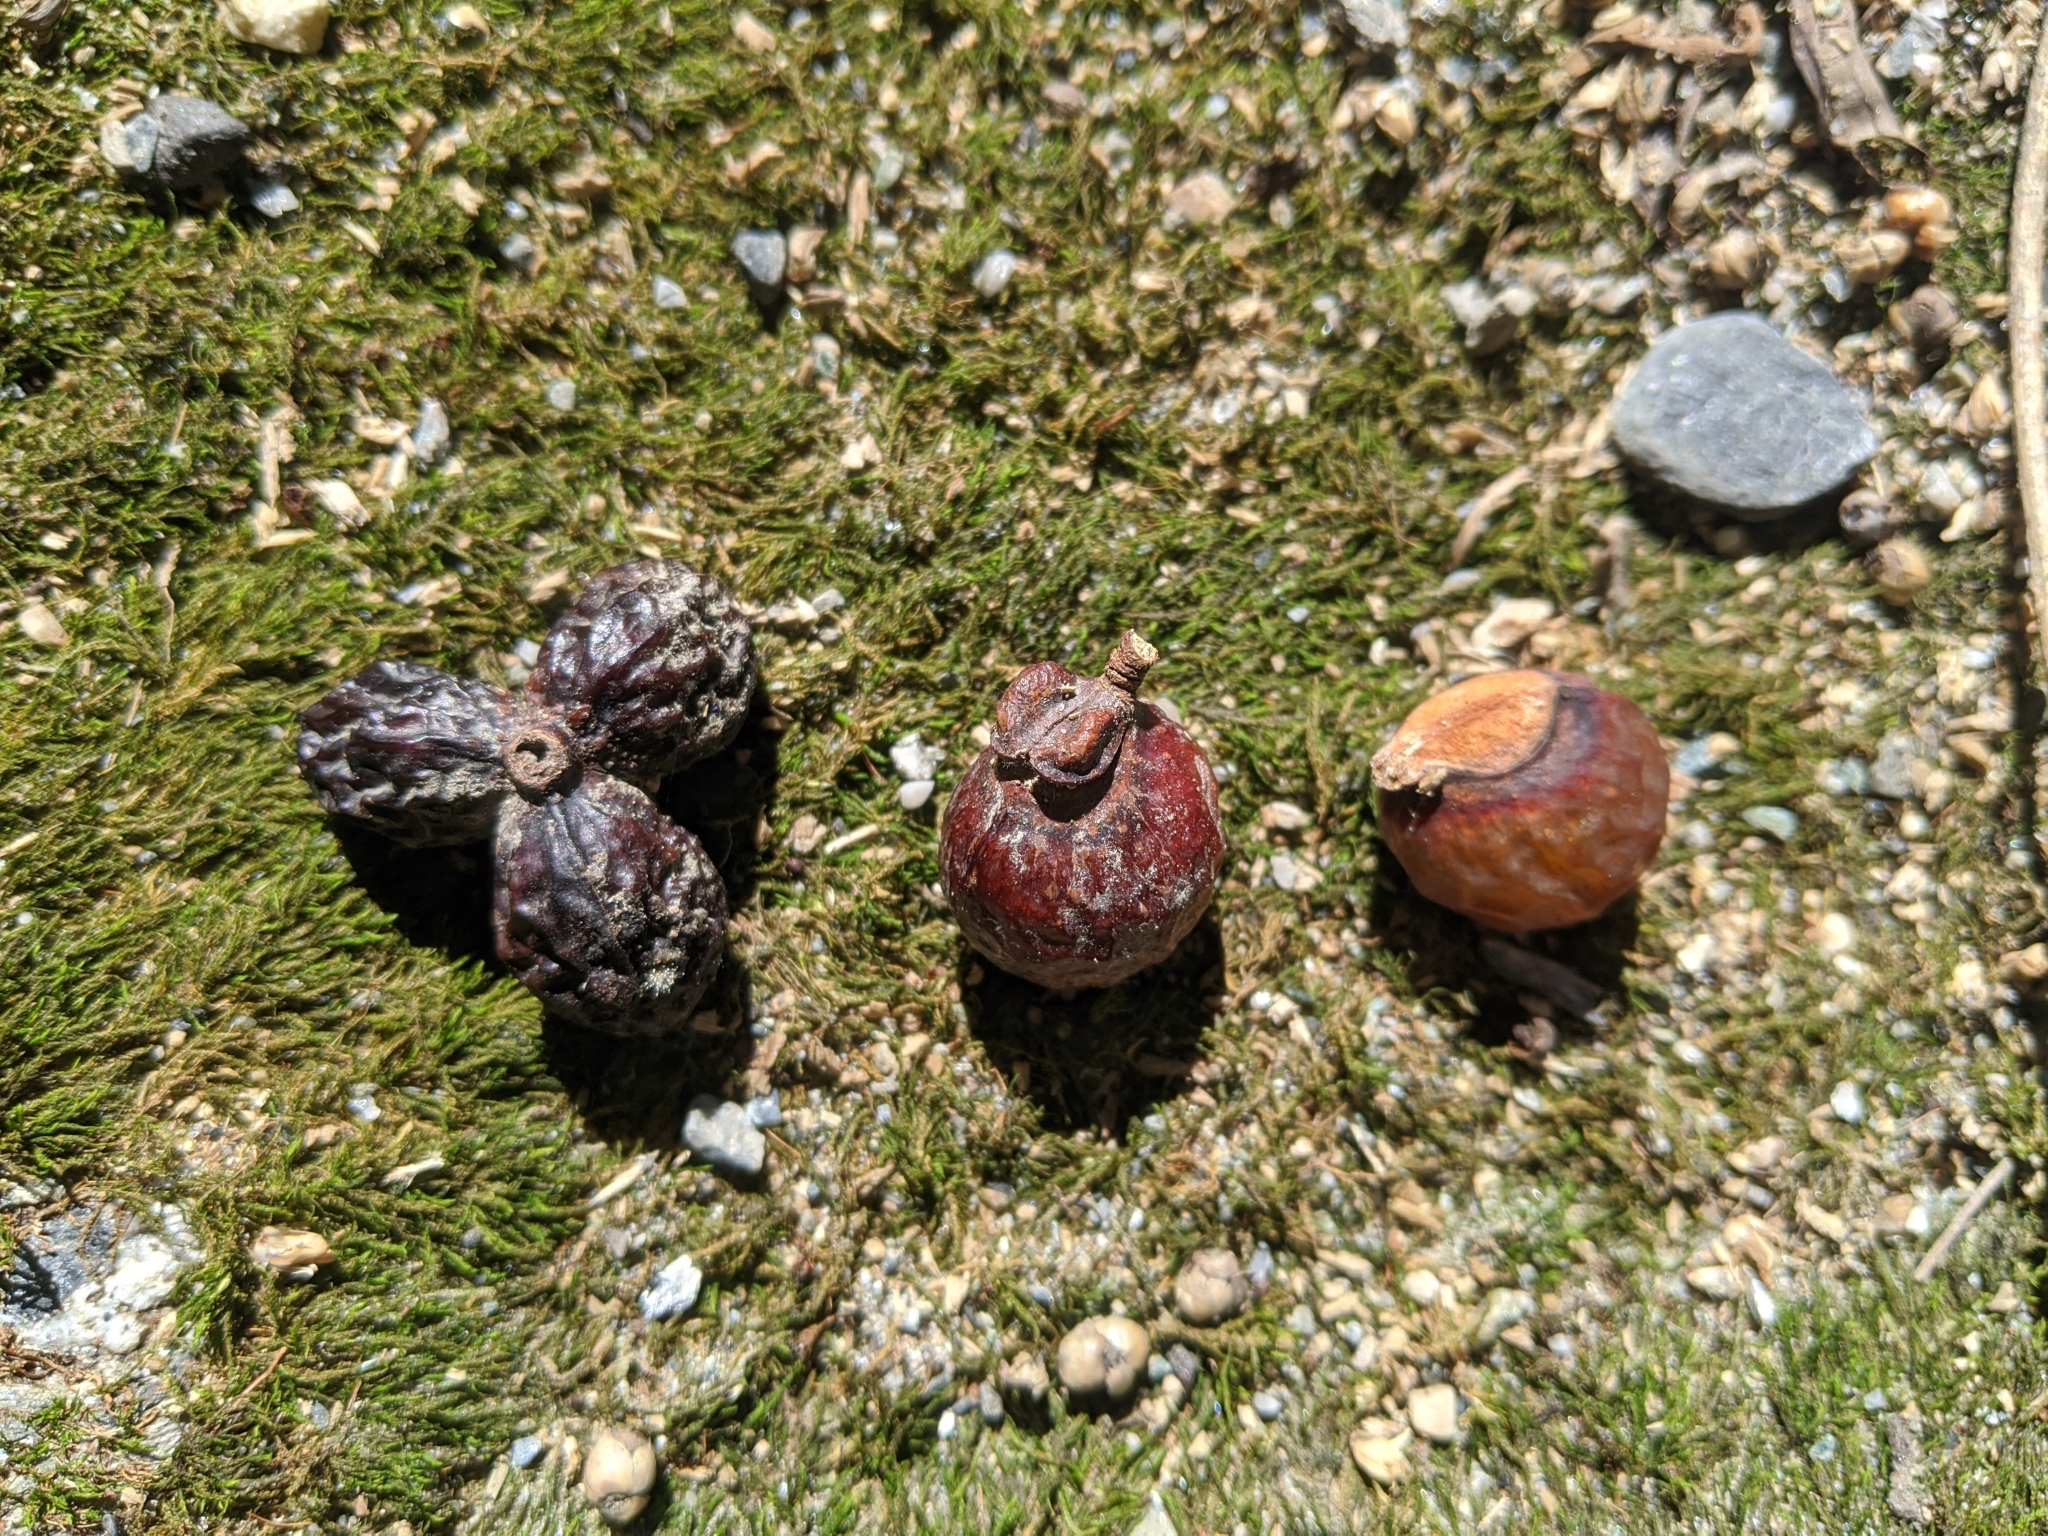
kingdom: Plantae
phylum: Tracheophyta
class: Magnoliopsida
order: Sapindales
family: Sapindaceae
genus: Sapindus
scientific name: Sapindus mukorossi
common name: Chinese soapberry
